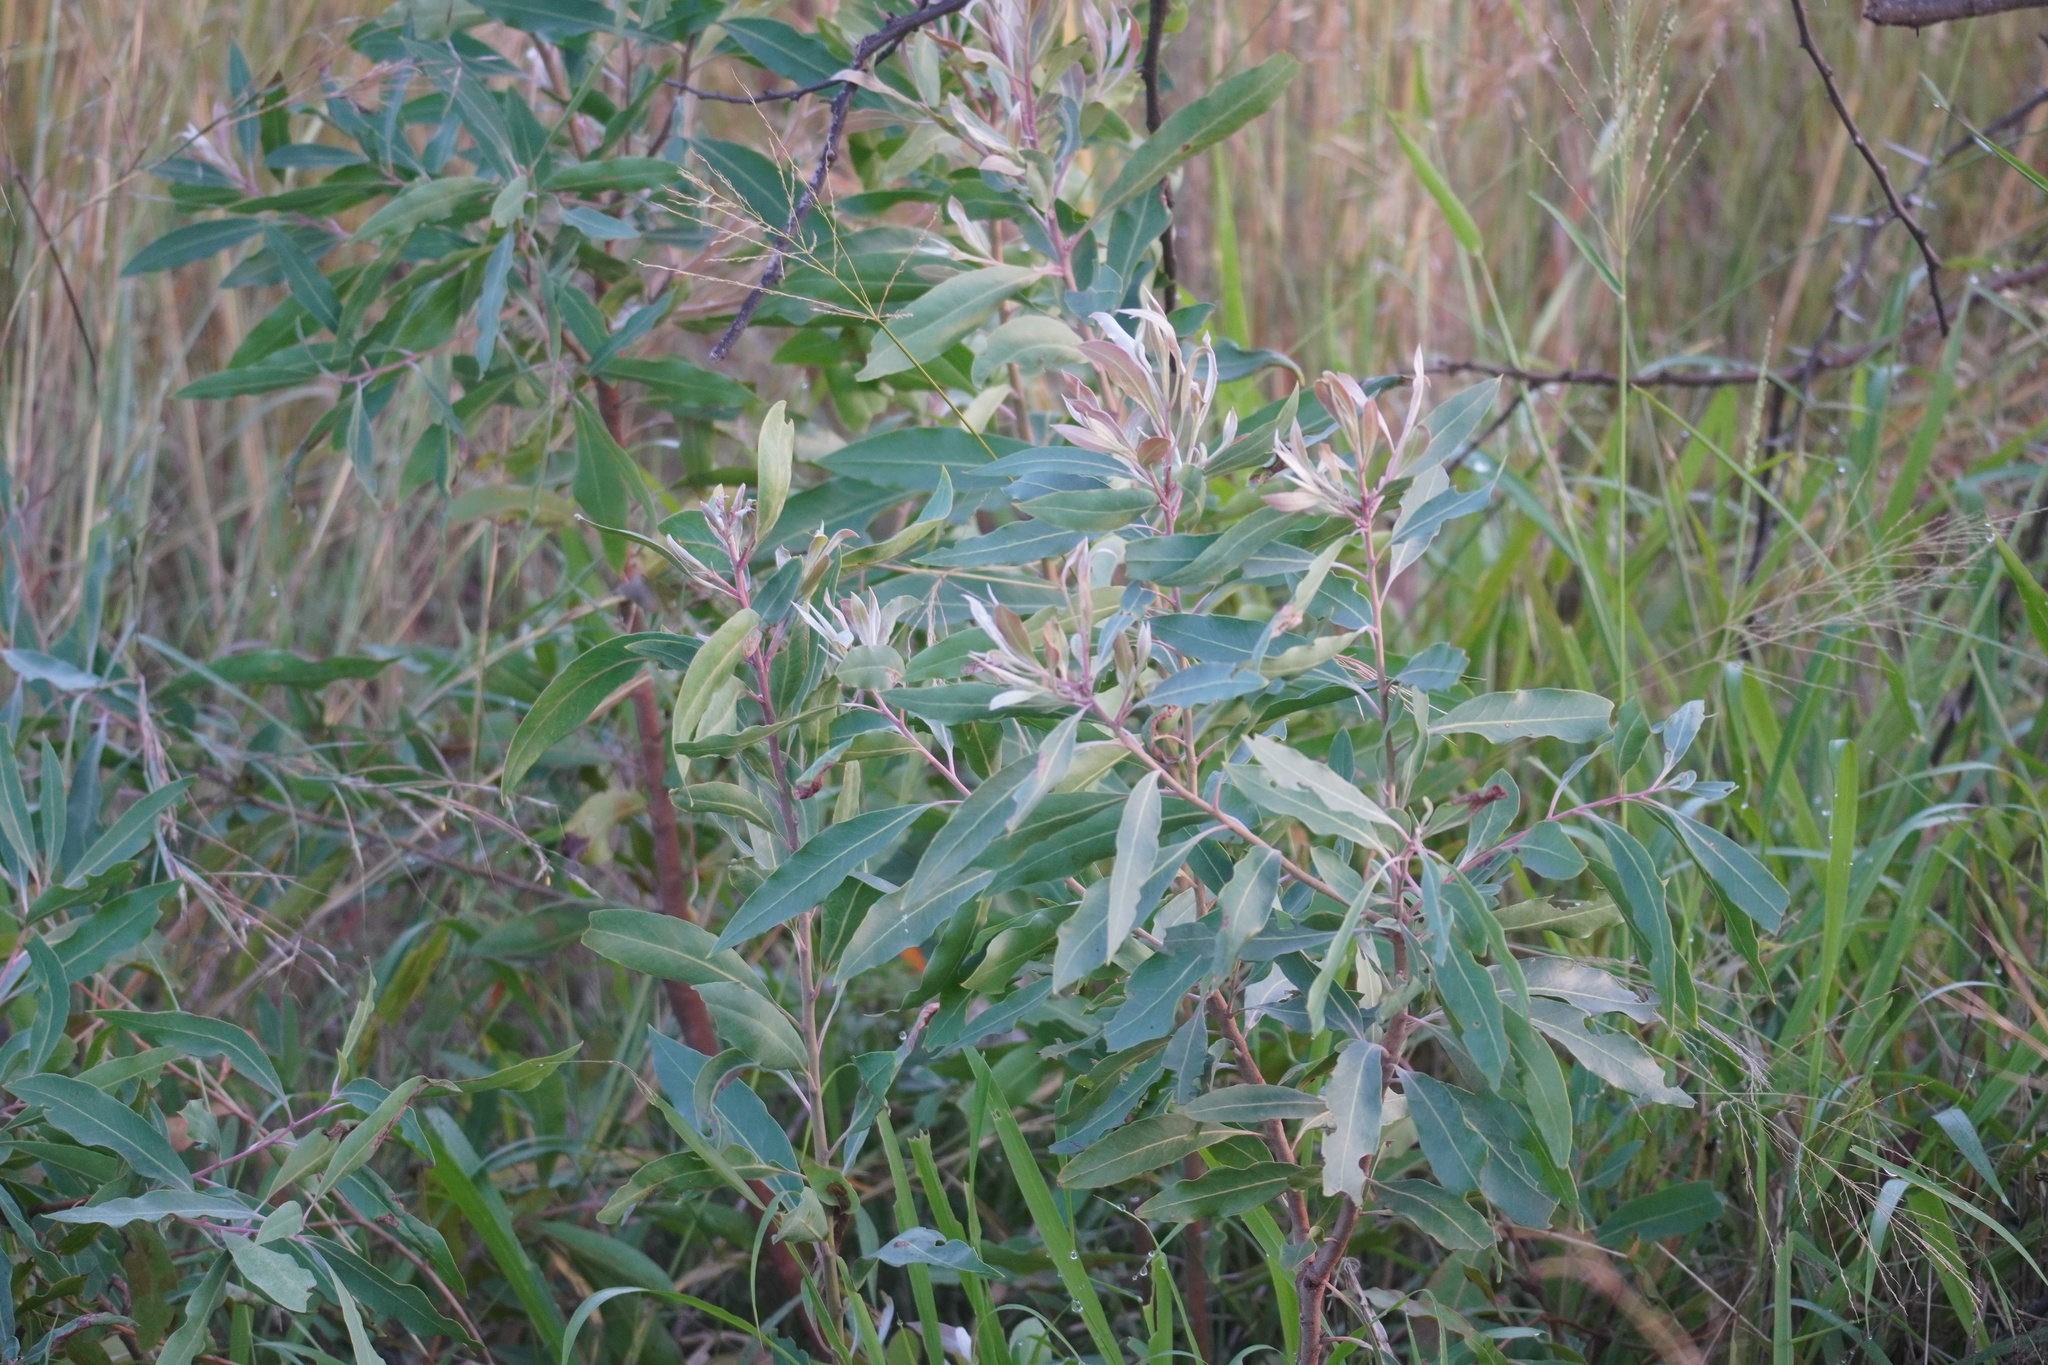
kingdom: Plantae
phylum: Tracheophyta
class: Magnoliopsida
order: Proteales
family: Proteaceae
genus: Faurea
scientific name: Faurea saligna
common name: African bean
